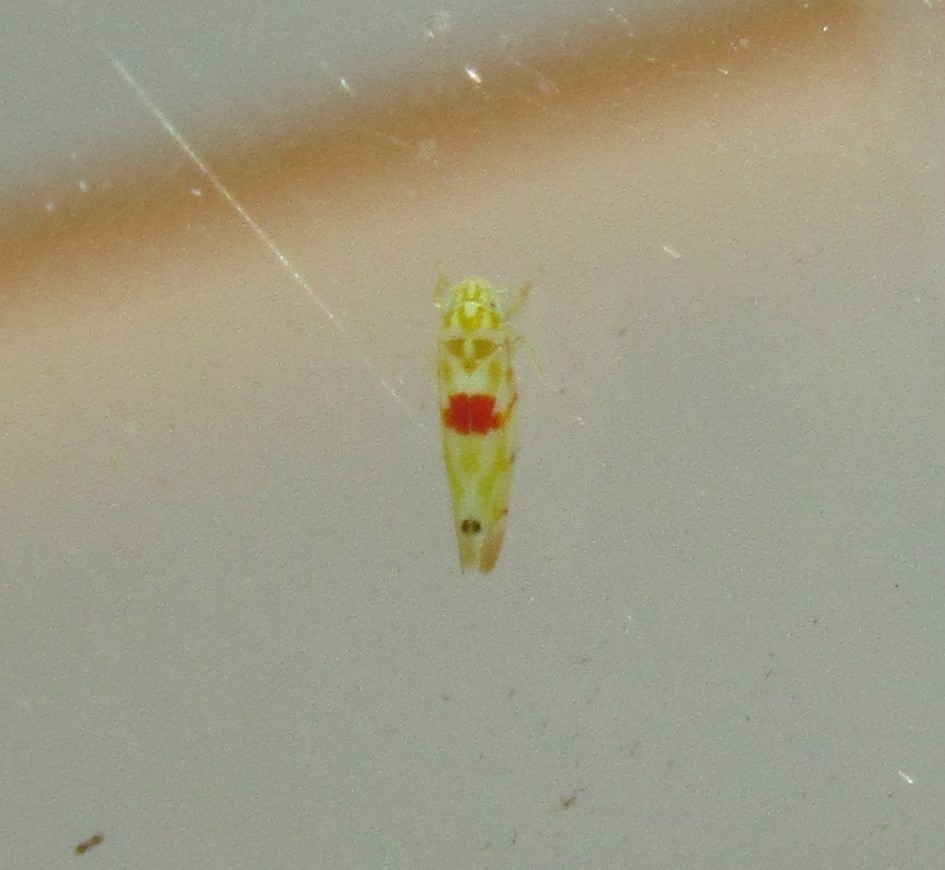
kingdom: Animalia
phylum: Arthropoda
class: Insecta
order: Hemiptera
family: Cicadellidae
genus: Eratoneura
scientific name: Eratoneura micheneri
